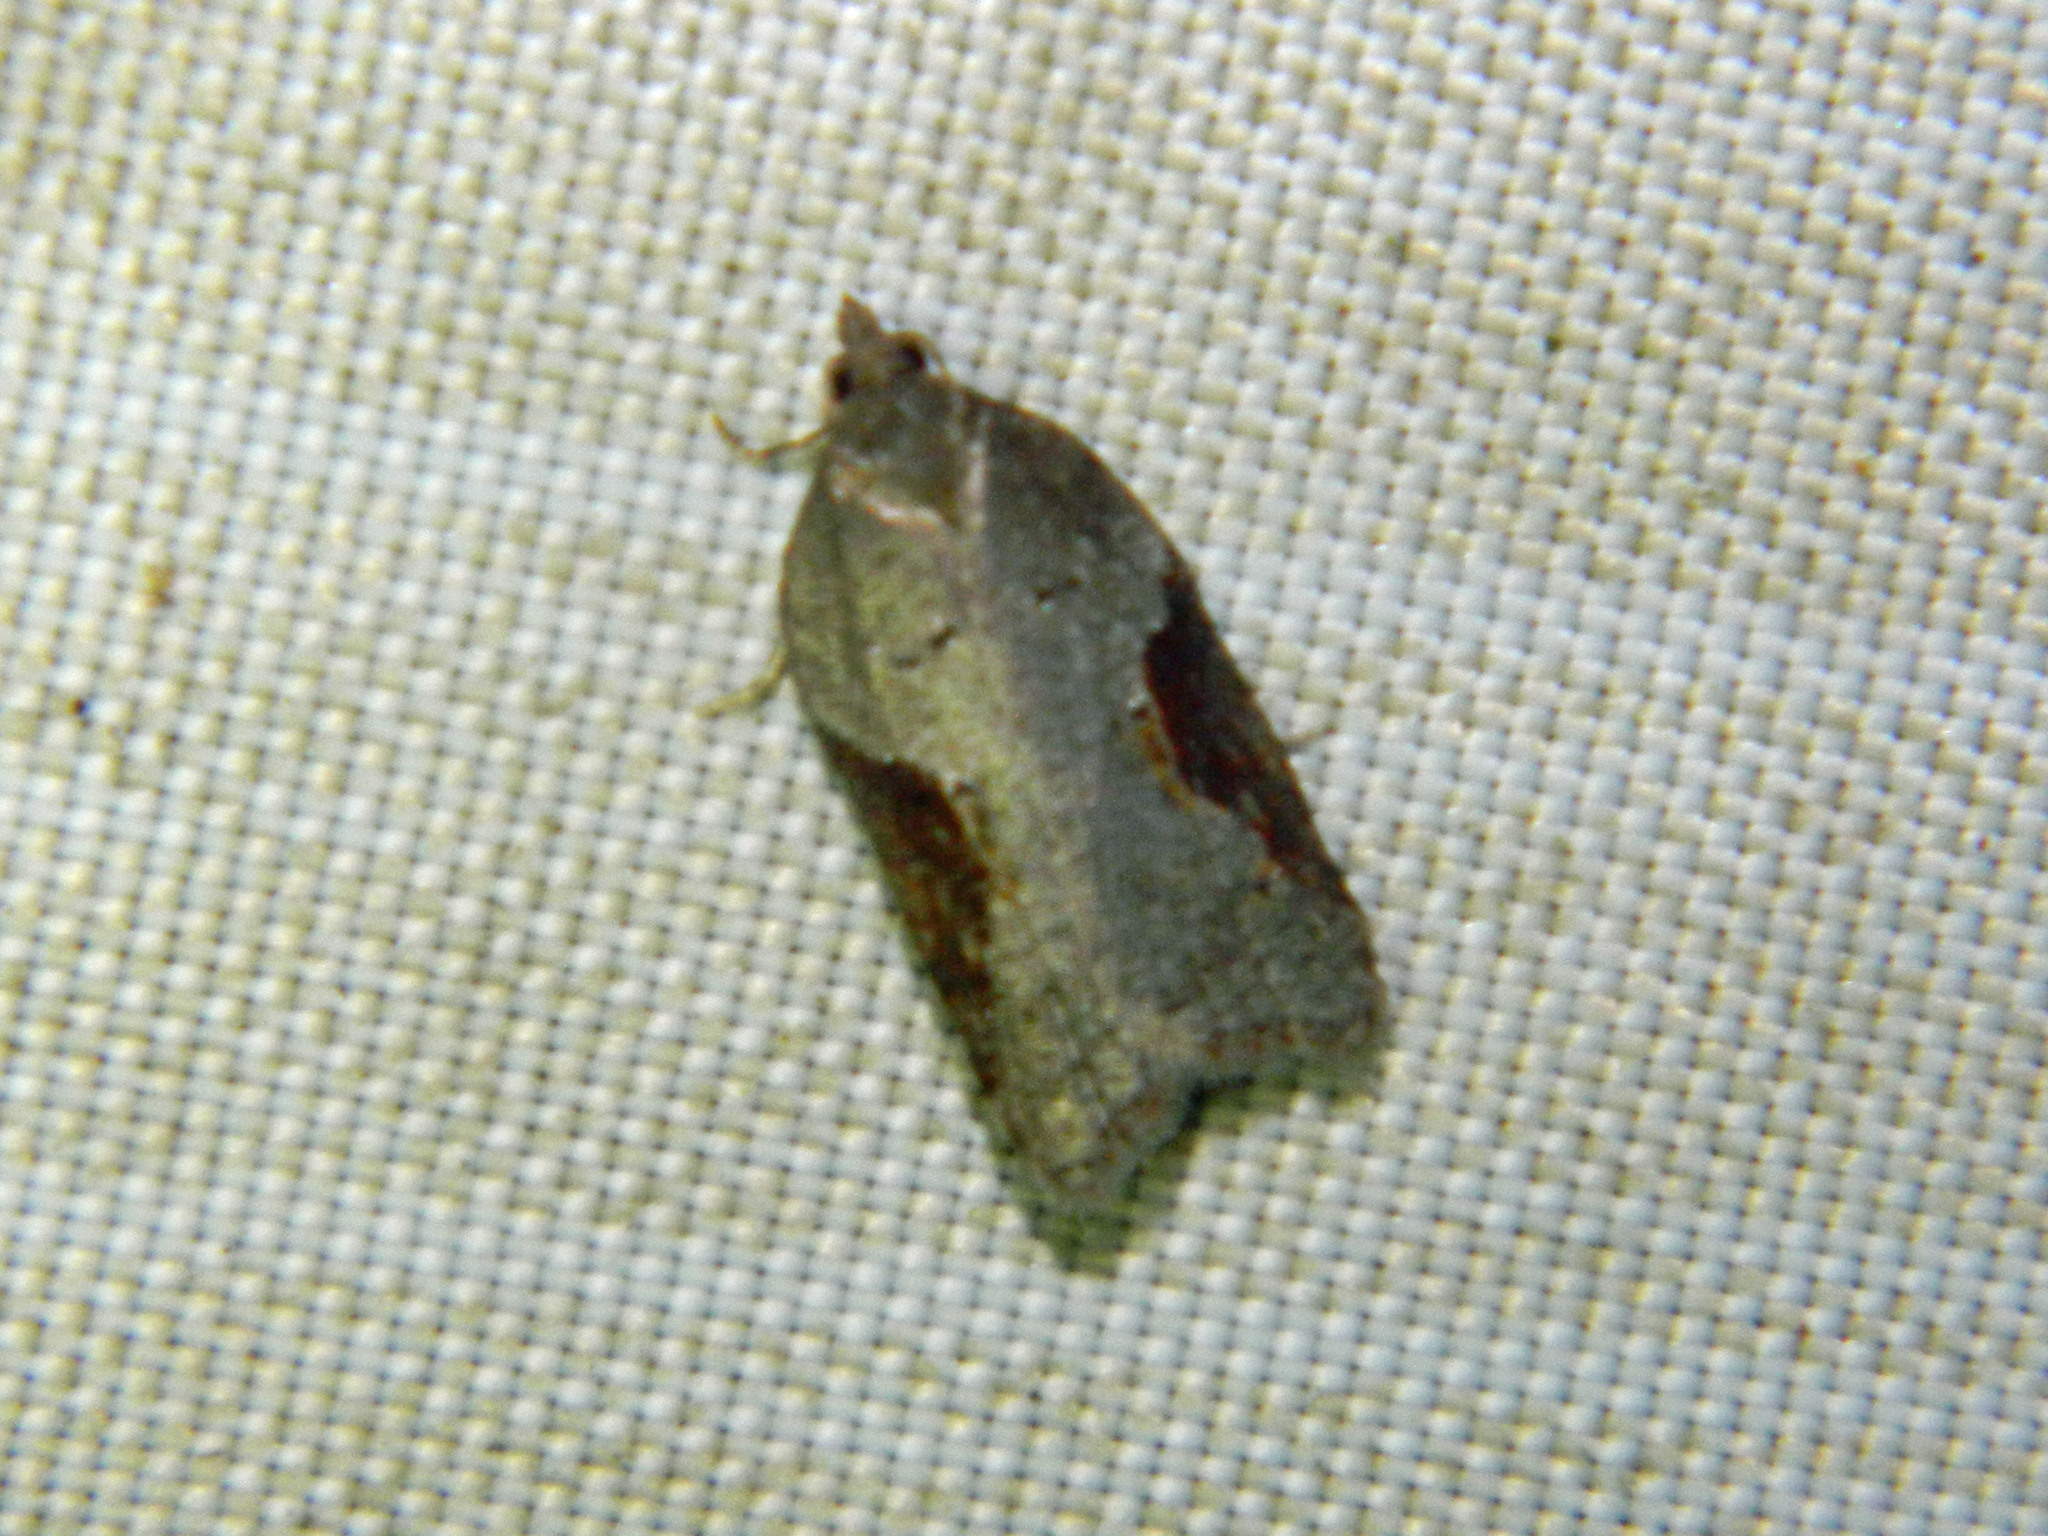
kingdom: Animalia
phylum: Arthropoda
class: Insecta
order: Lepidoptera
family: Tortricidae
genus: Acleris
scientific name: Acleris macdunnoughi
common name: Macdunnough's acleris
